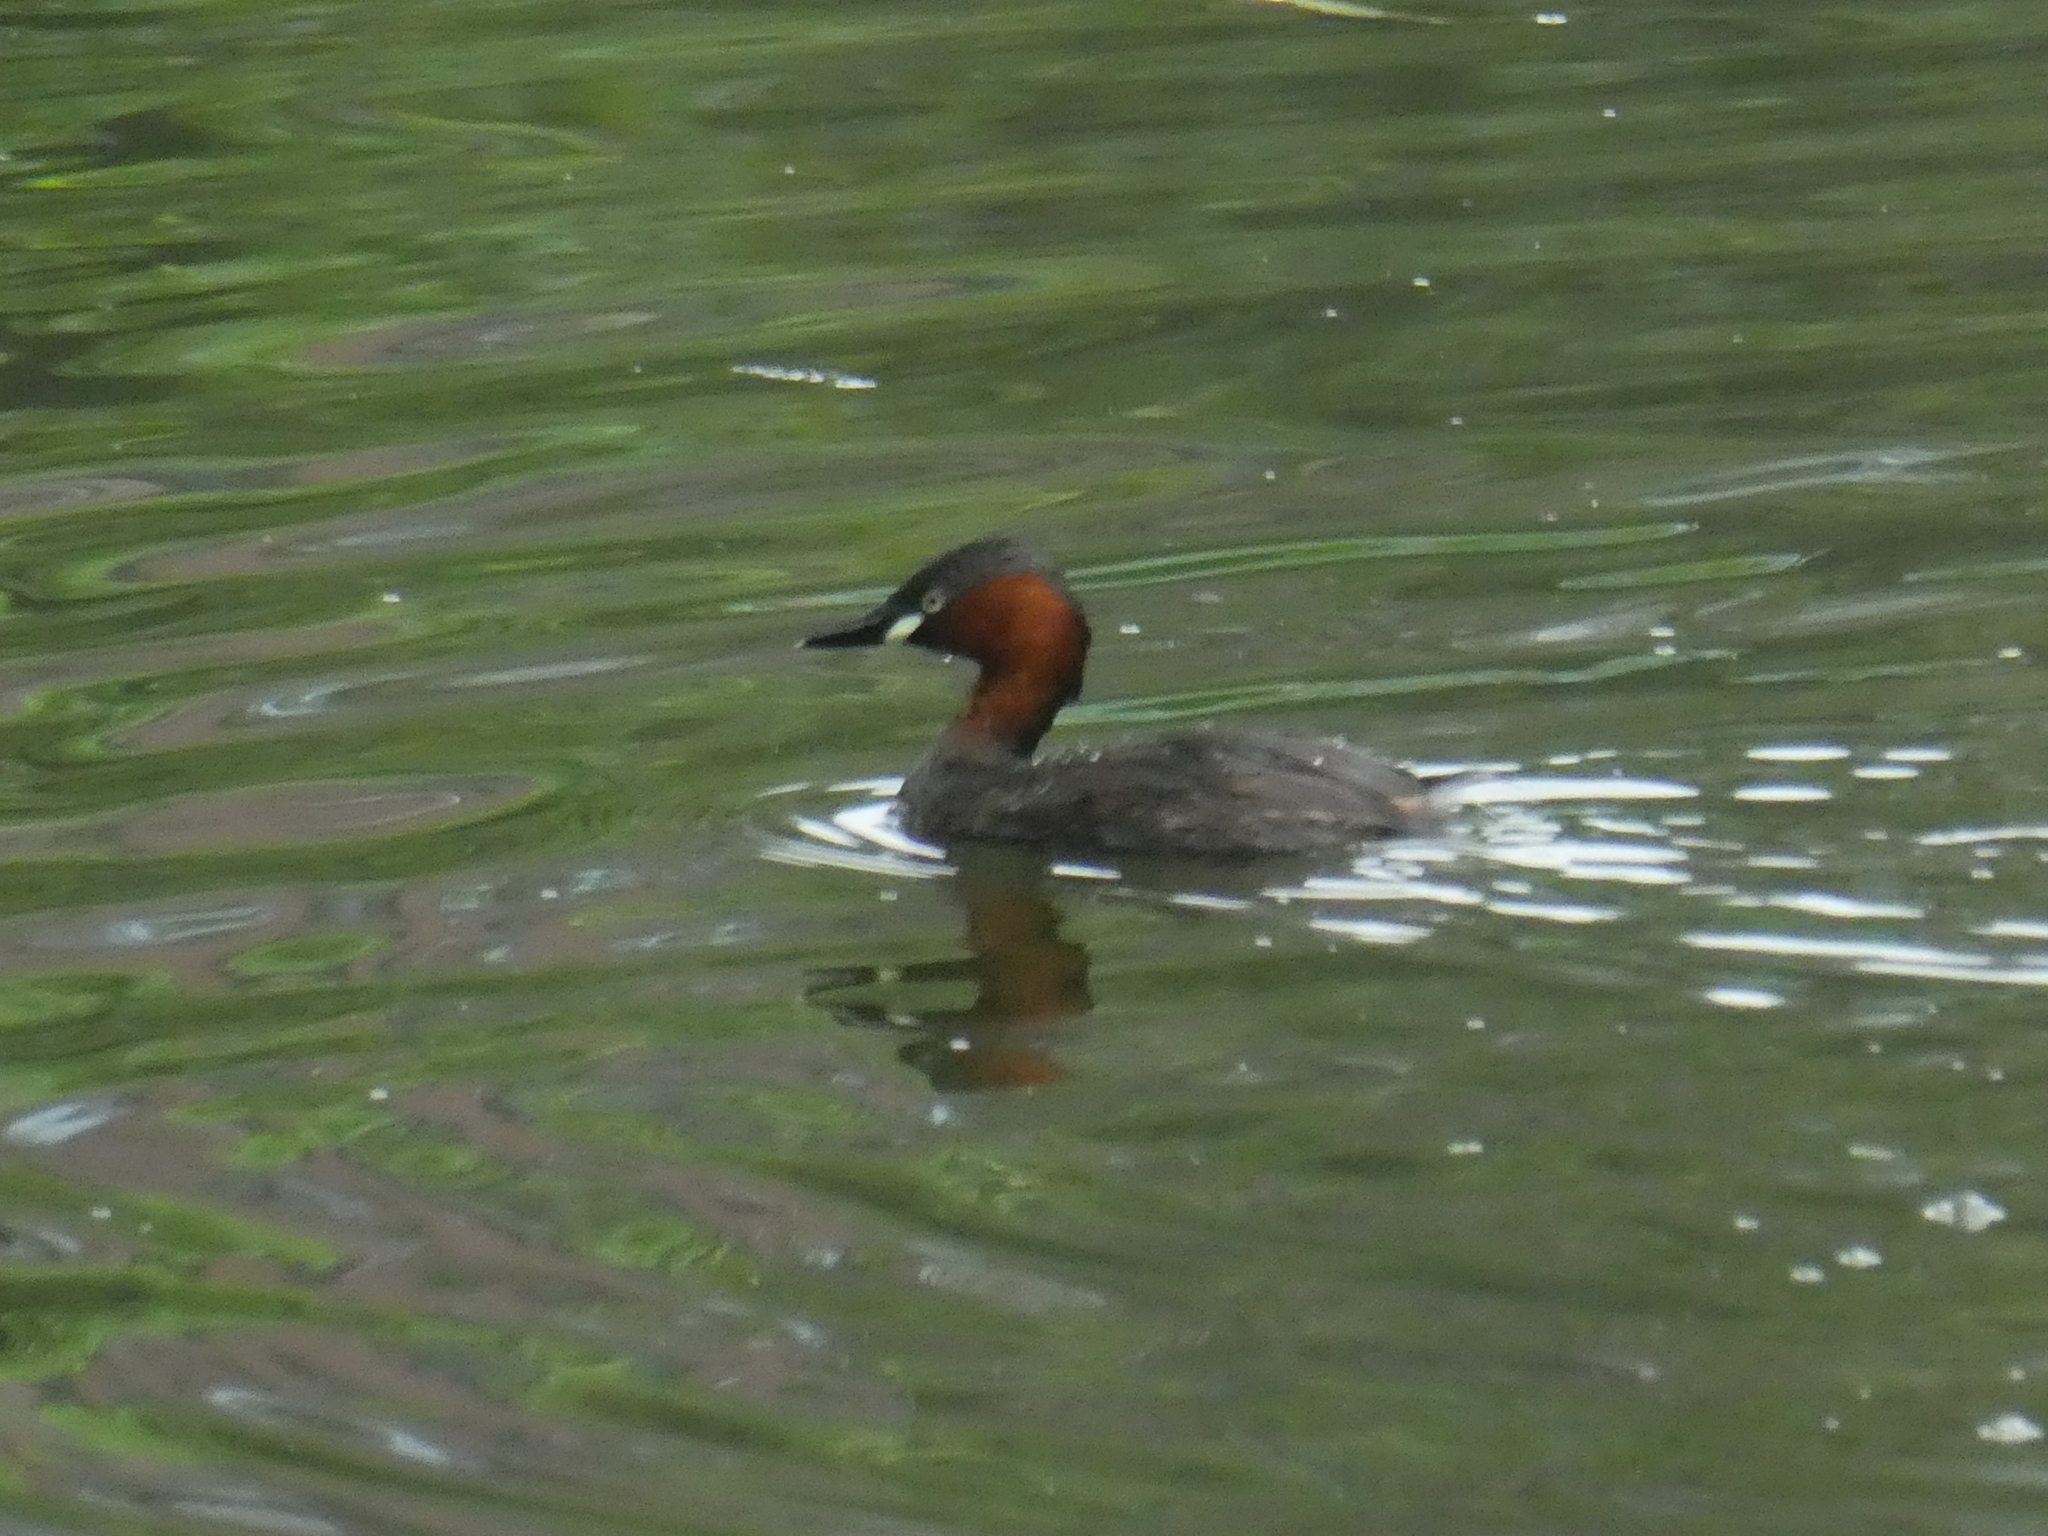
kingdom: Animalia
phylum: Chordata
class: Aves
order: Podicipediformes
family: Podicipedidae
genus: Tachybaptus
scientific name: Tachybaptus ruficollis
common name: Little grebe
